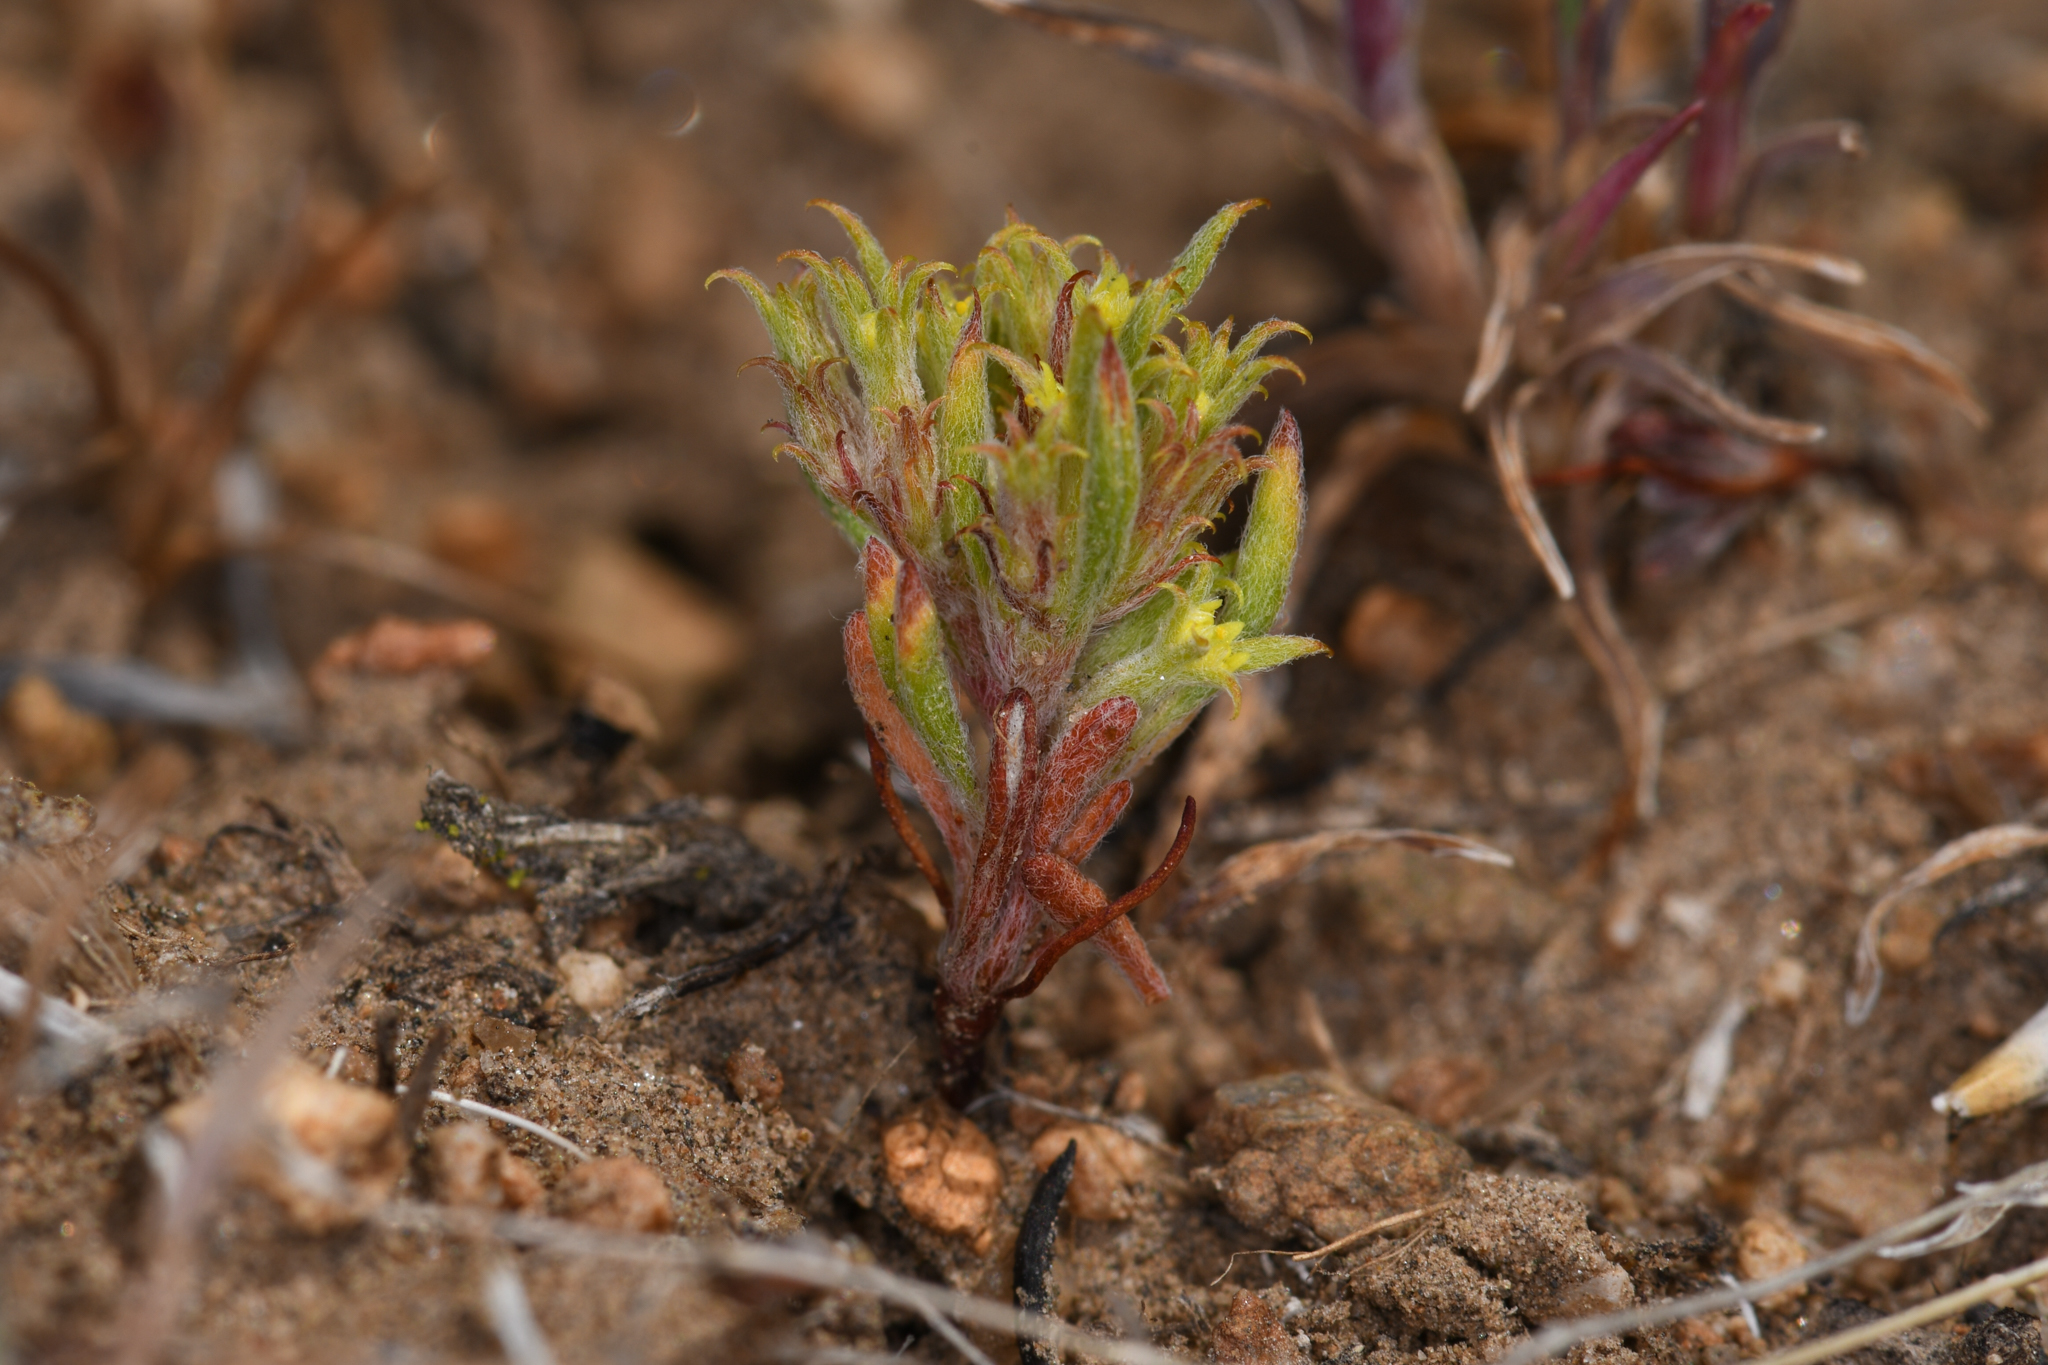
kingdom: Plantae
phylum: Tracheophyta
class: Magnoliopsida
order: Caryophyllales
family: Polygonaceae
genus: Chorizanthe
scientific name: Chorizanthe watsonii
